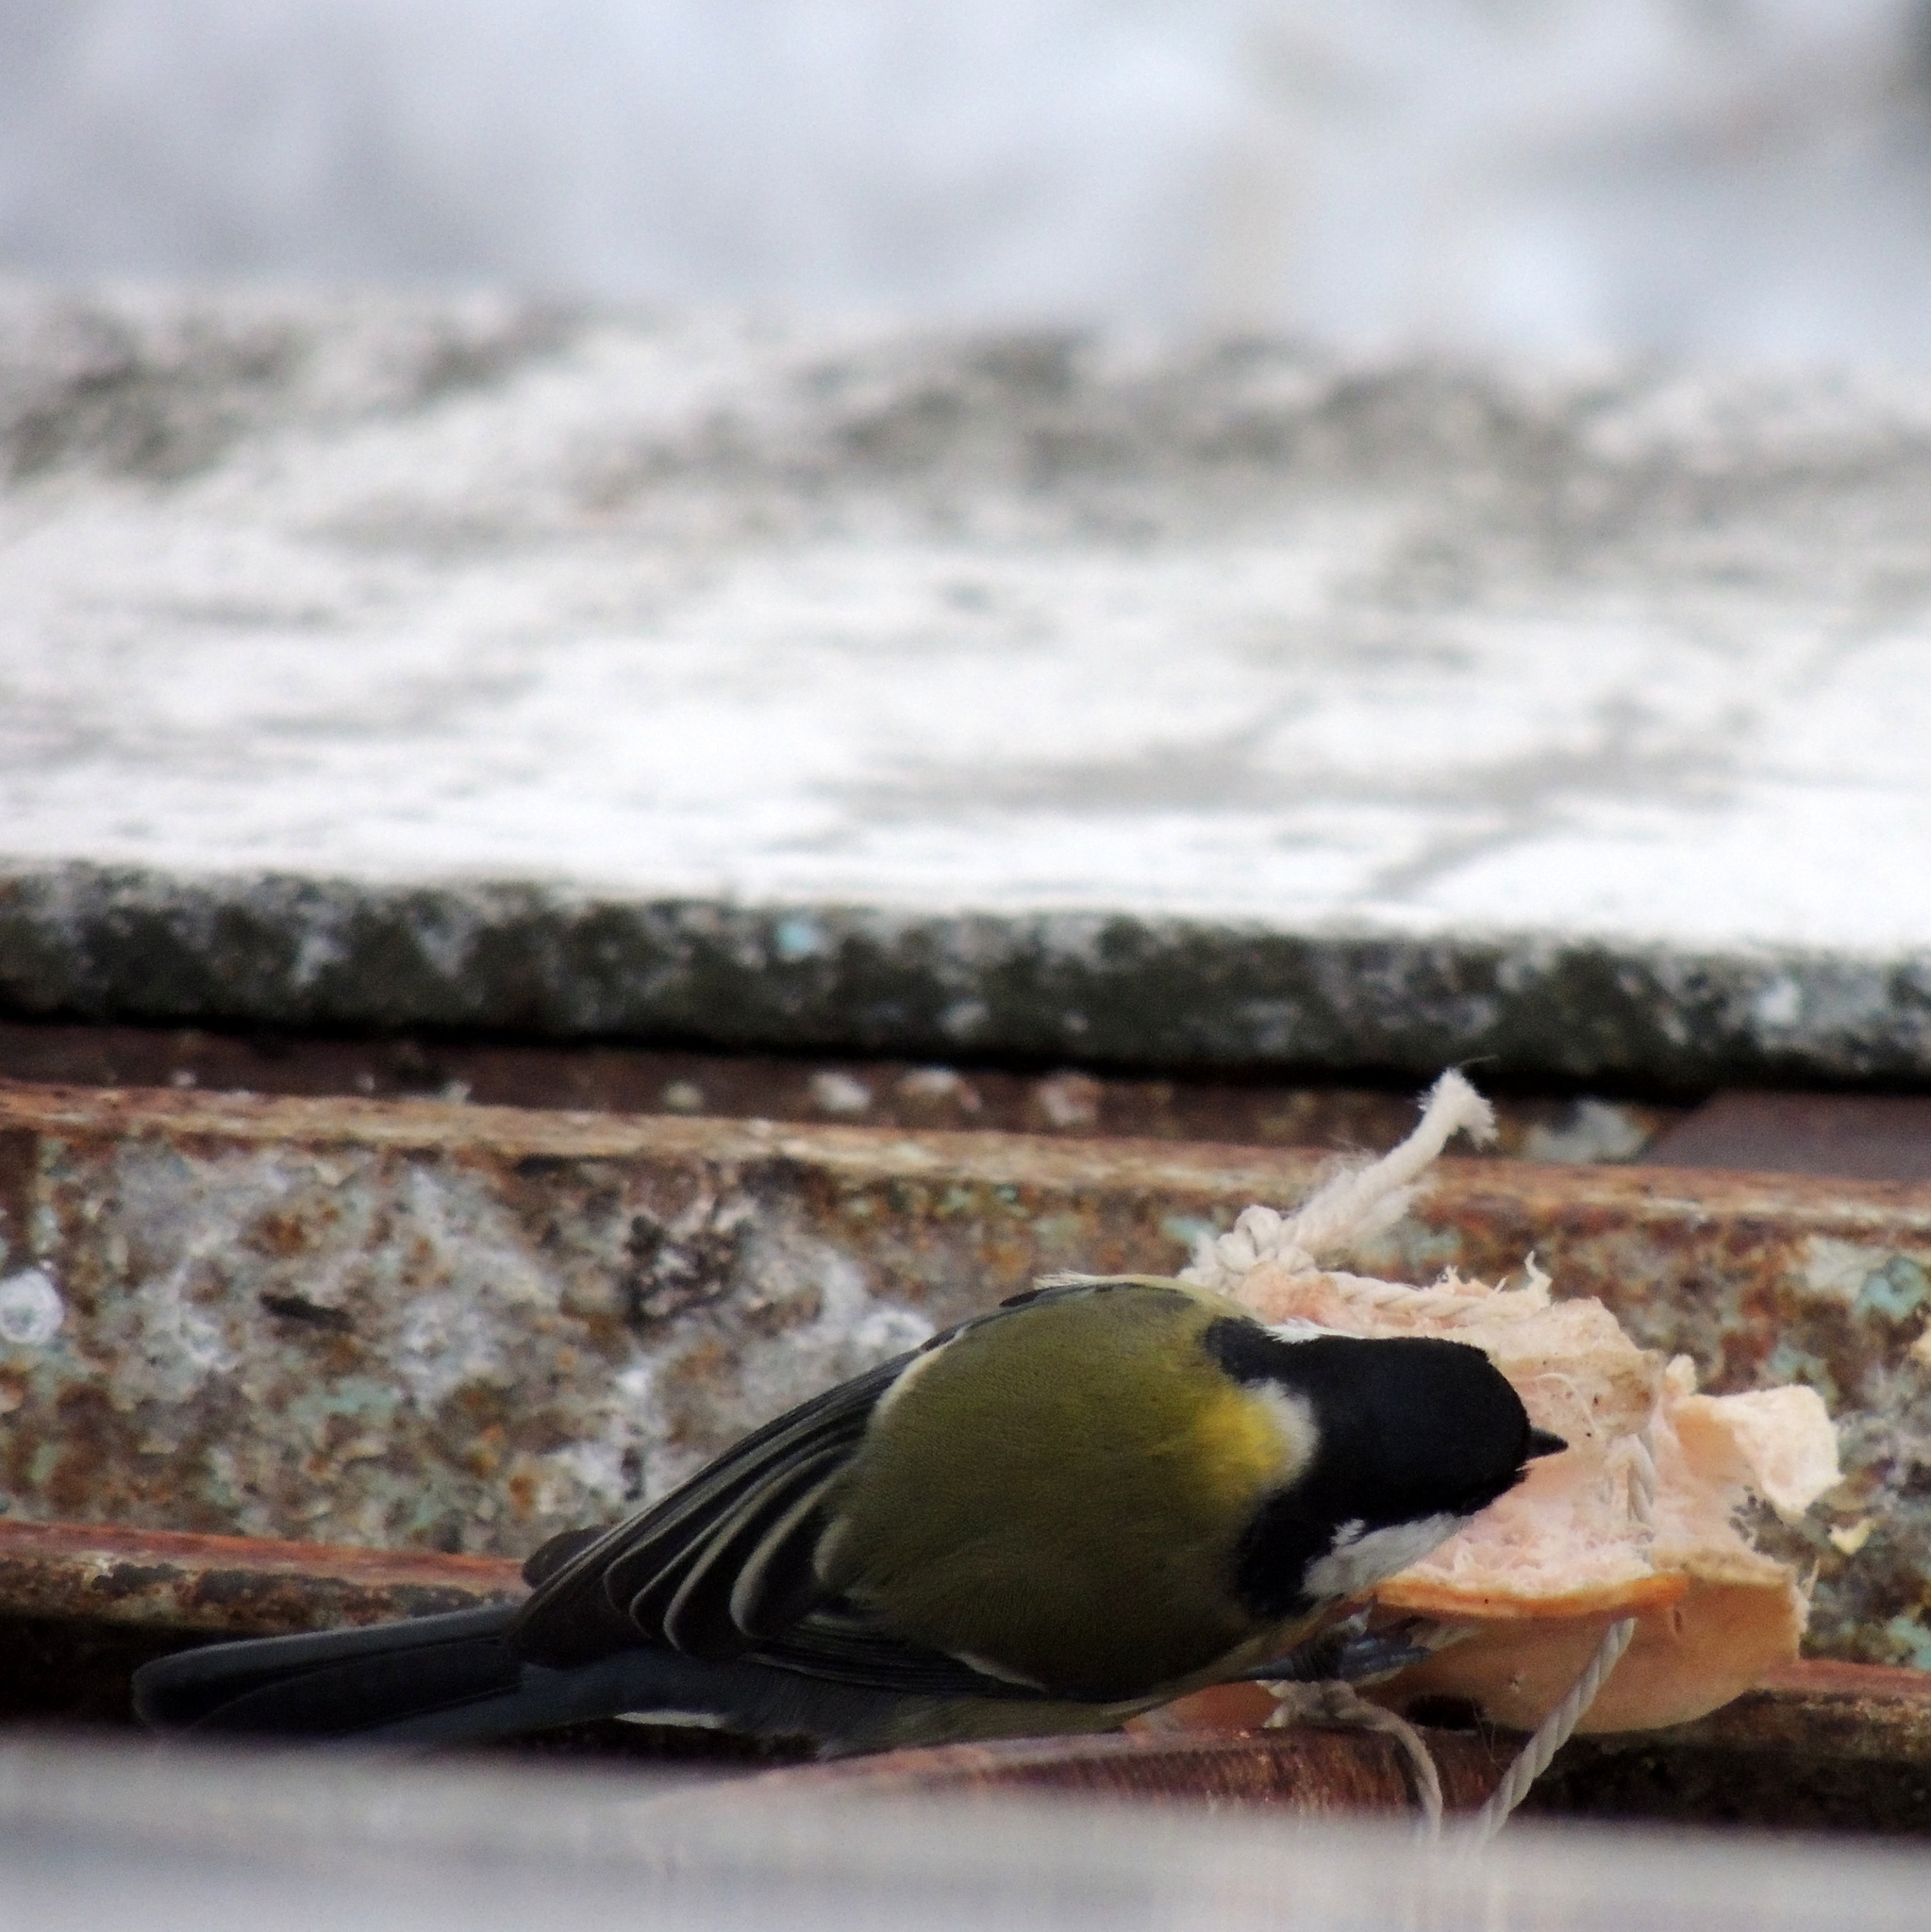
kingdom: Animalia
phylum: Chordata
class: Aves
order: Passeriformes
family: Paridae
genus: Parus
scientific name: Parus major
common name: Great tit
